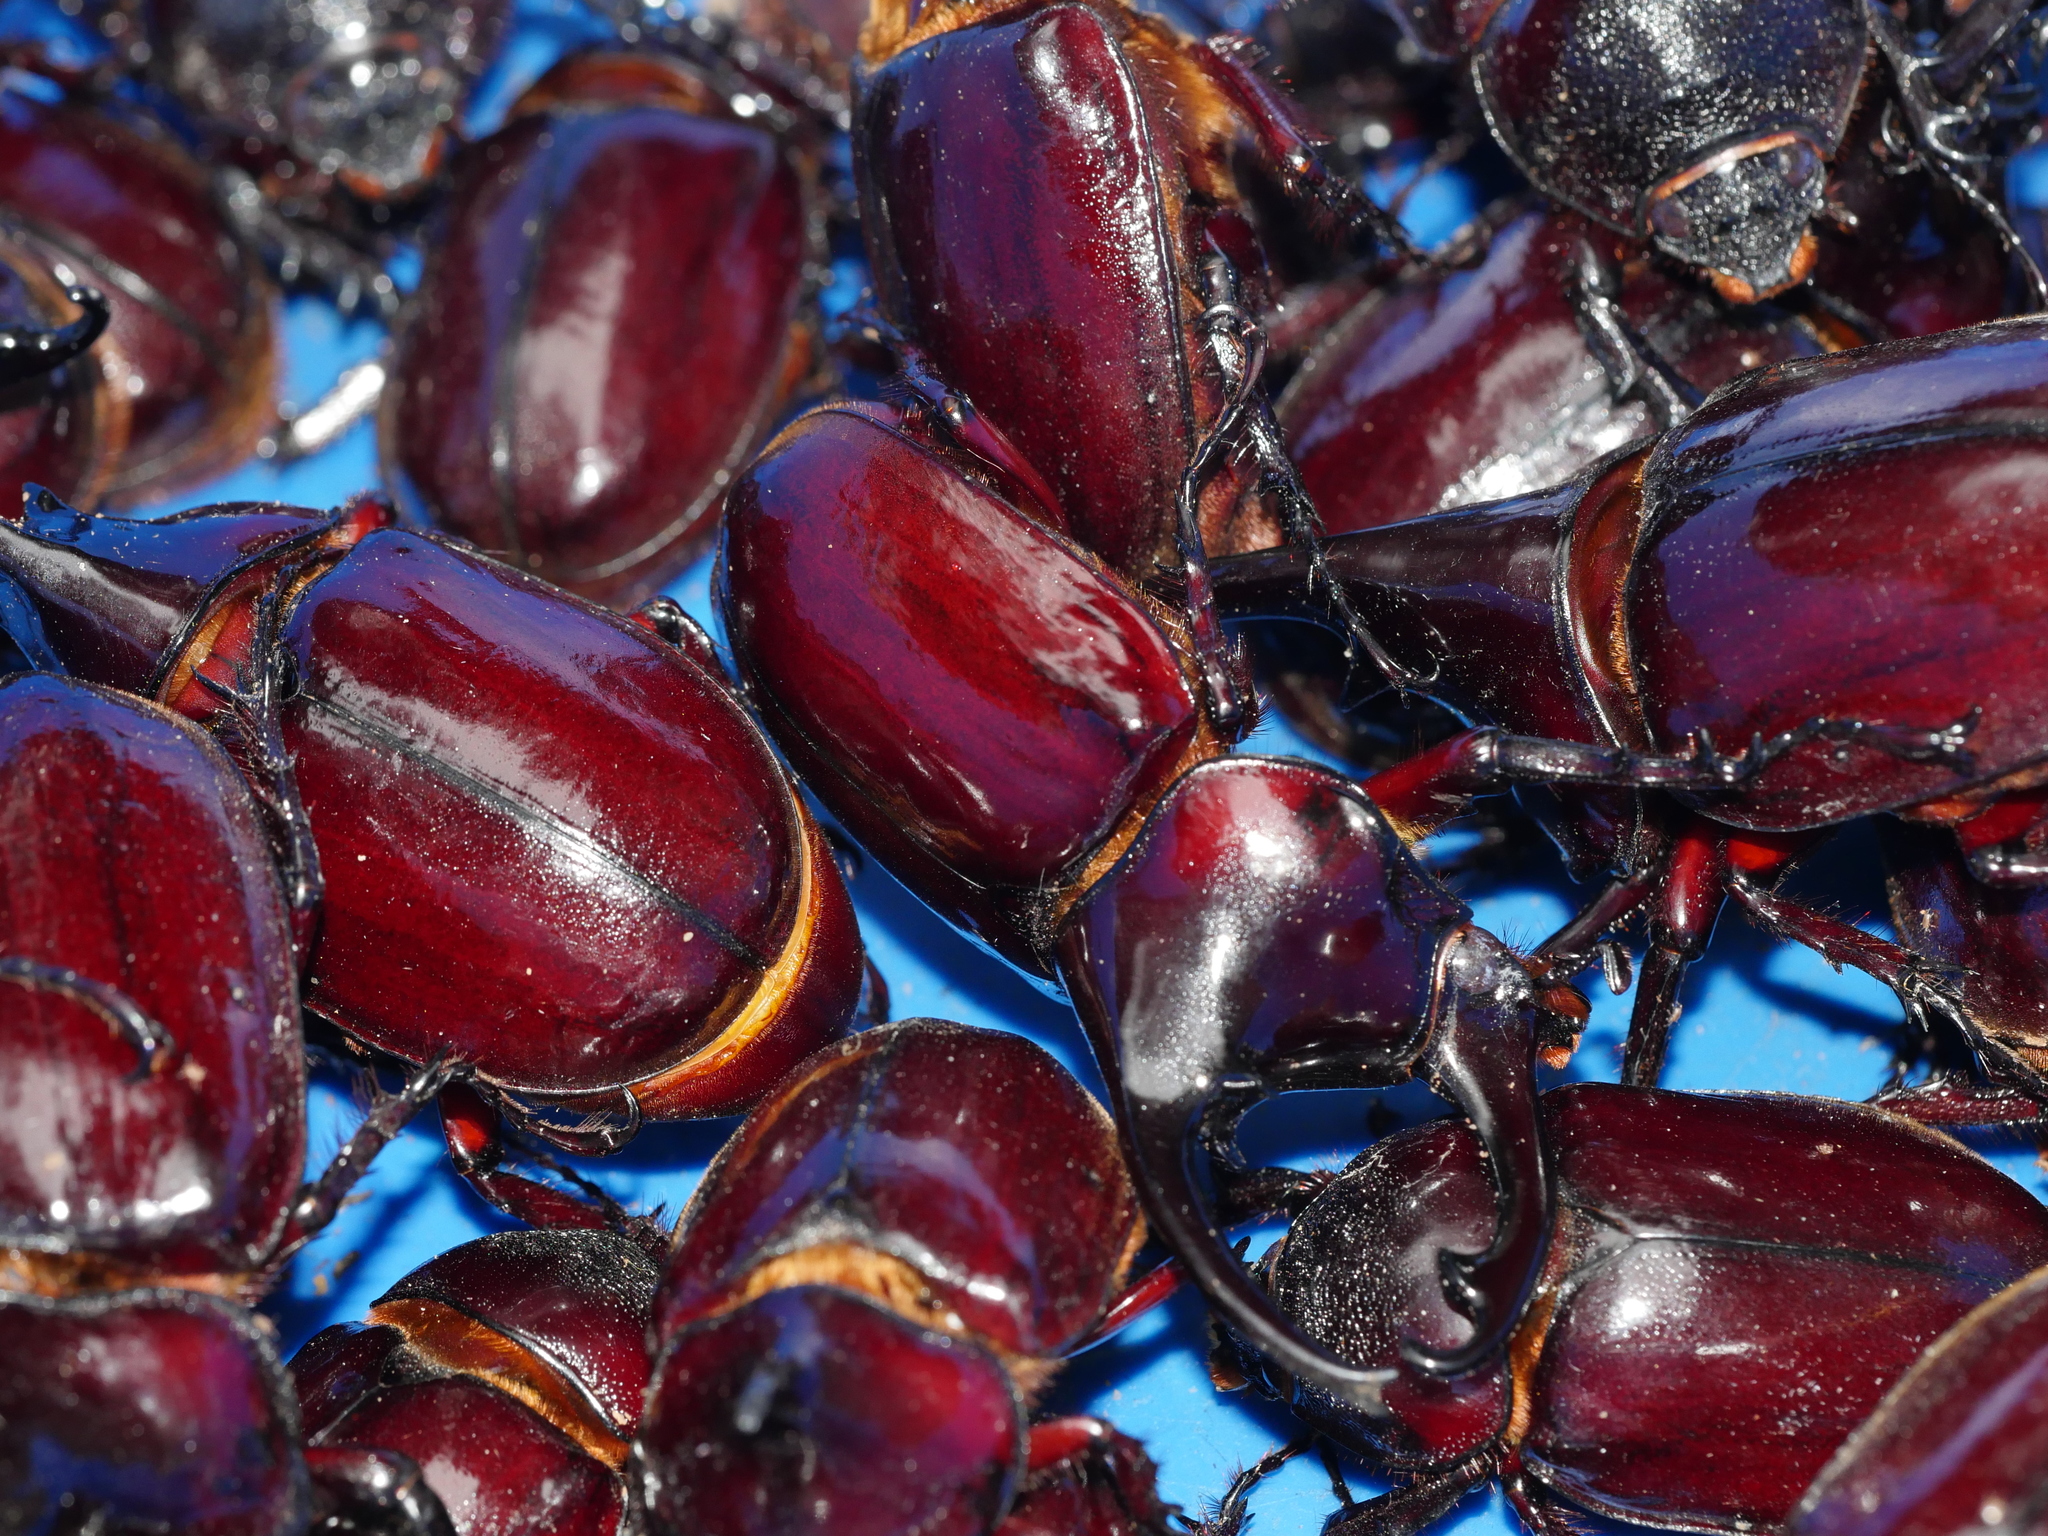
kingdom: Animalia
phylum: Arthropoda
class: Insecta
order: Coleoptera
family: Scarabaeidae
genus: Augosoma
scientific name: Augosoma centaurus
